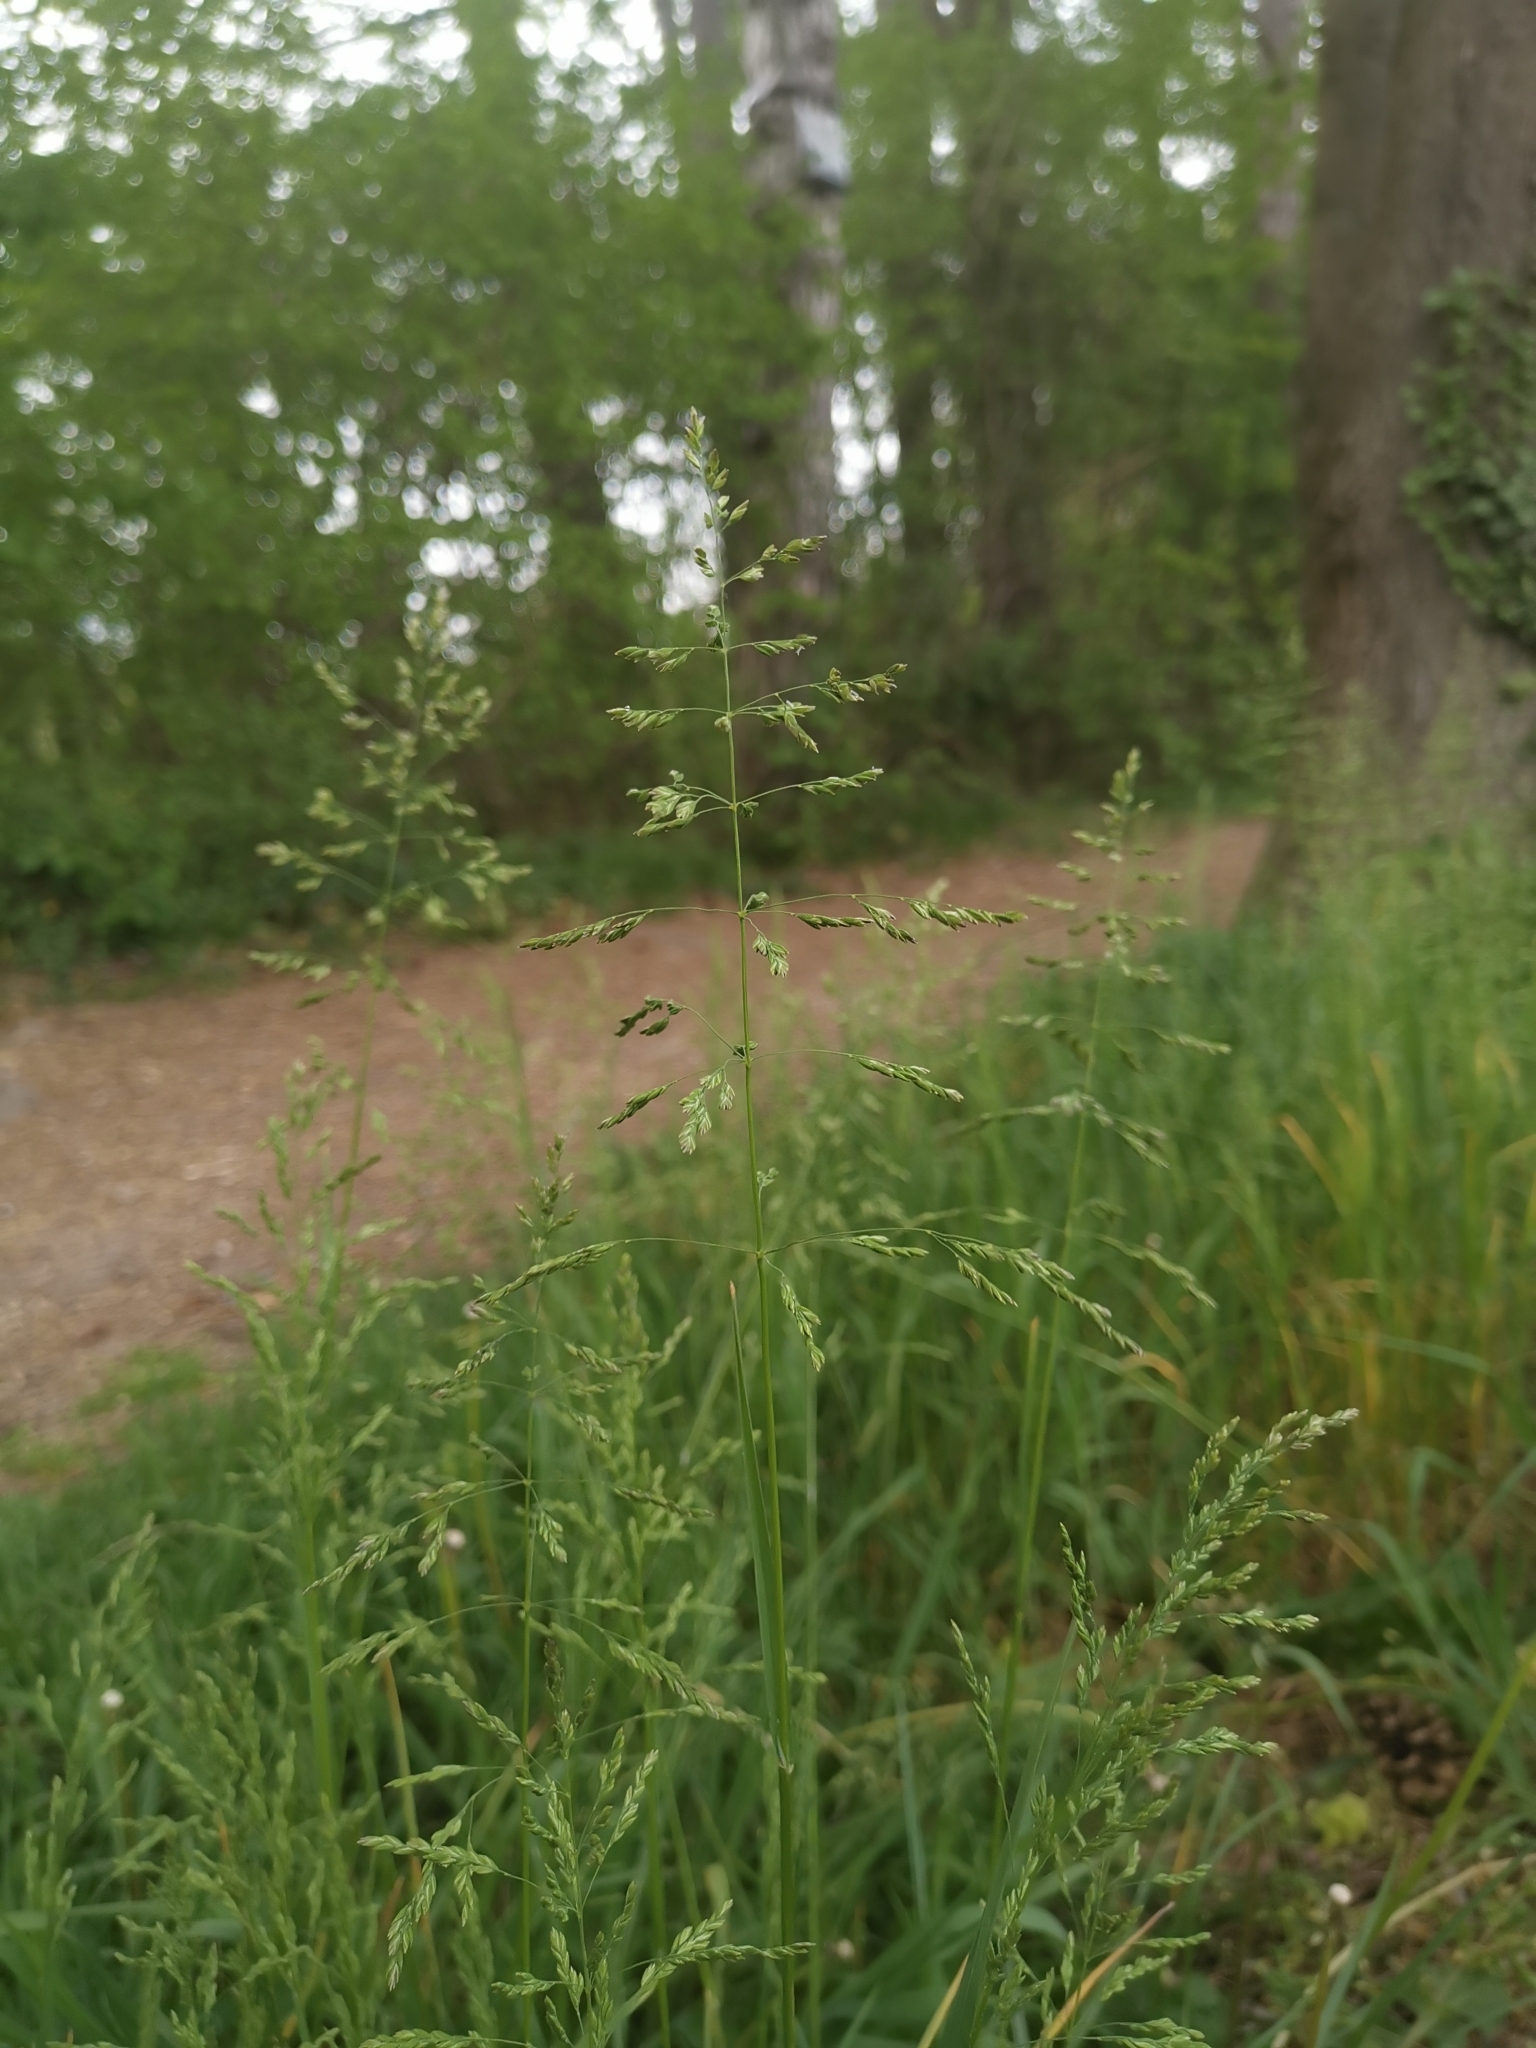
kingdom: Plantae
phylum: Tracheophyta
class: Liliopsida
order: Poales
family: Poaceae
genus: Poa
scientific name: Poa trivialis
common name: Rough bluegrass
